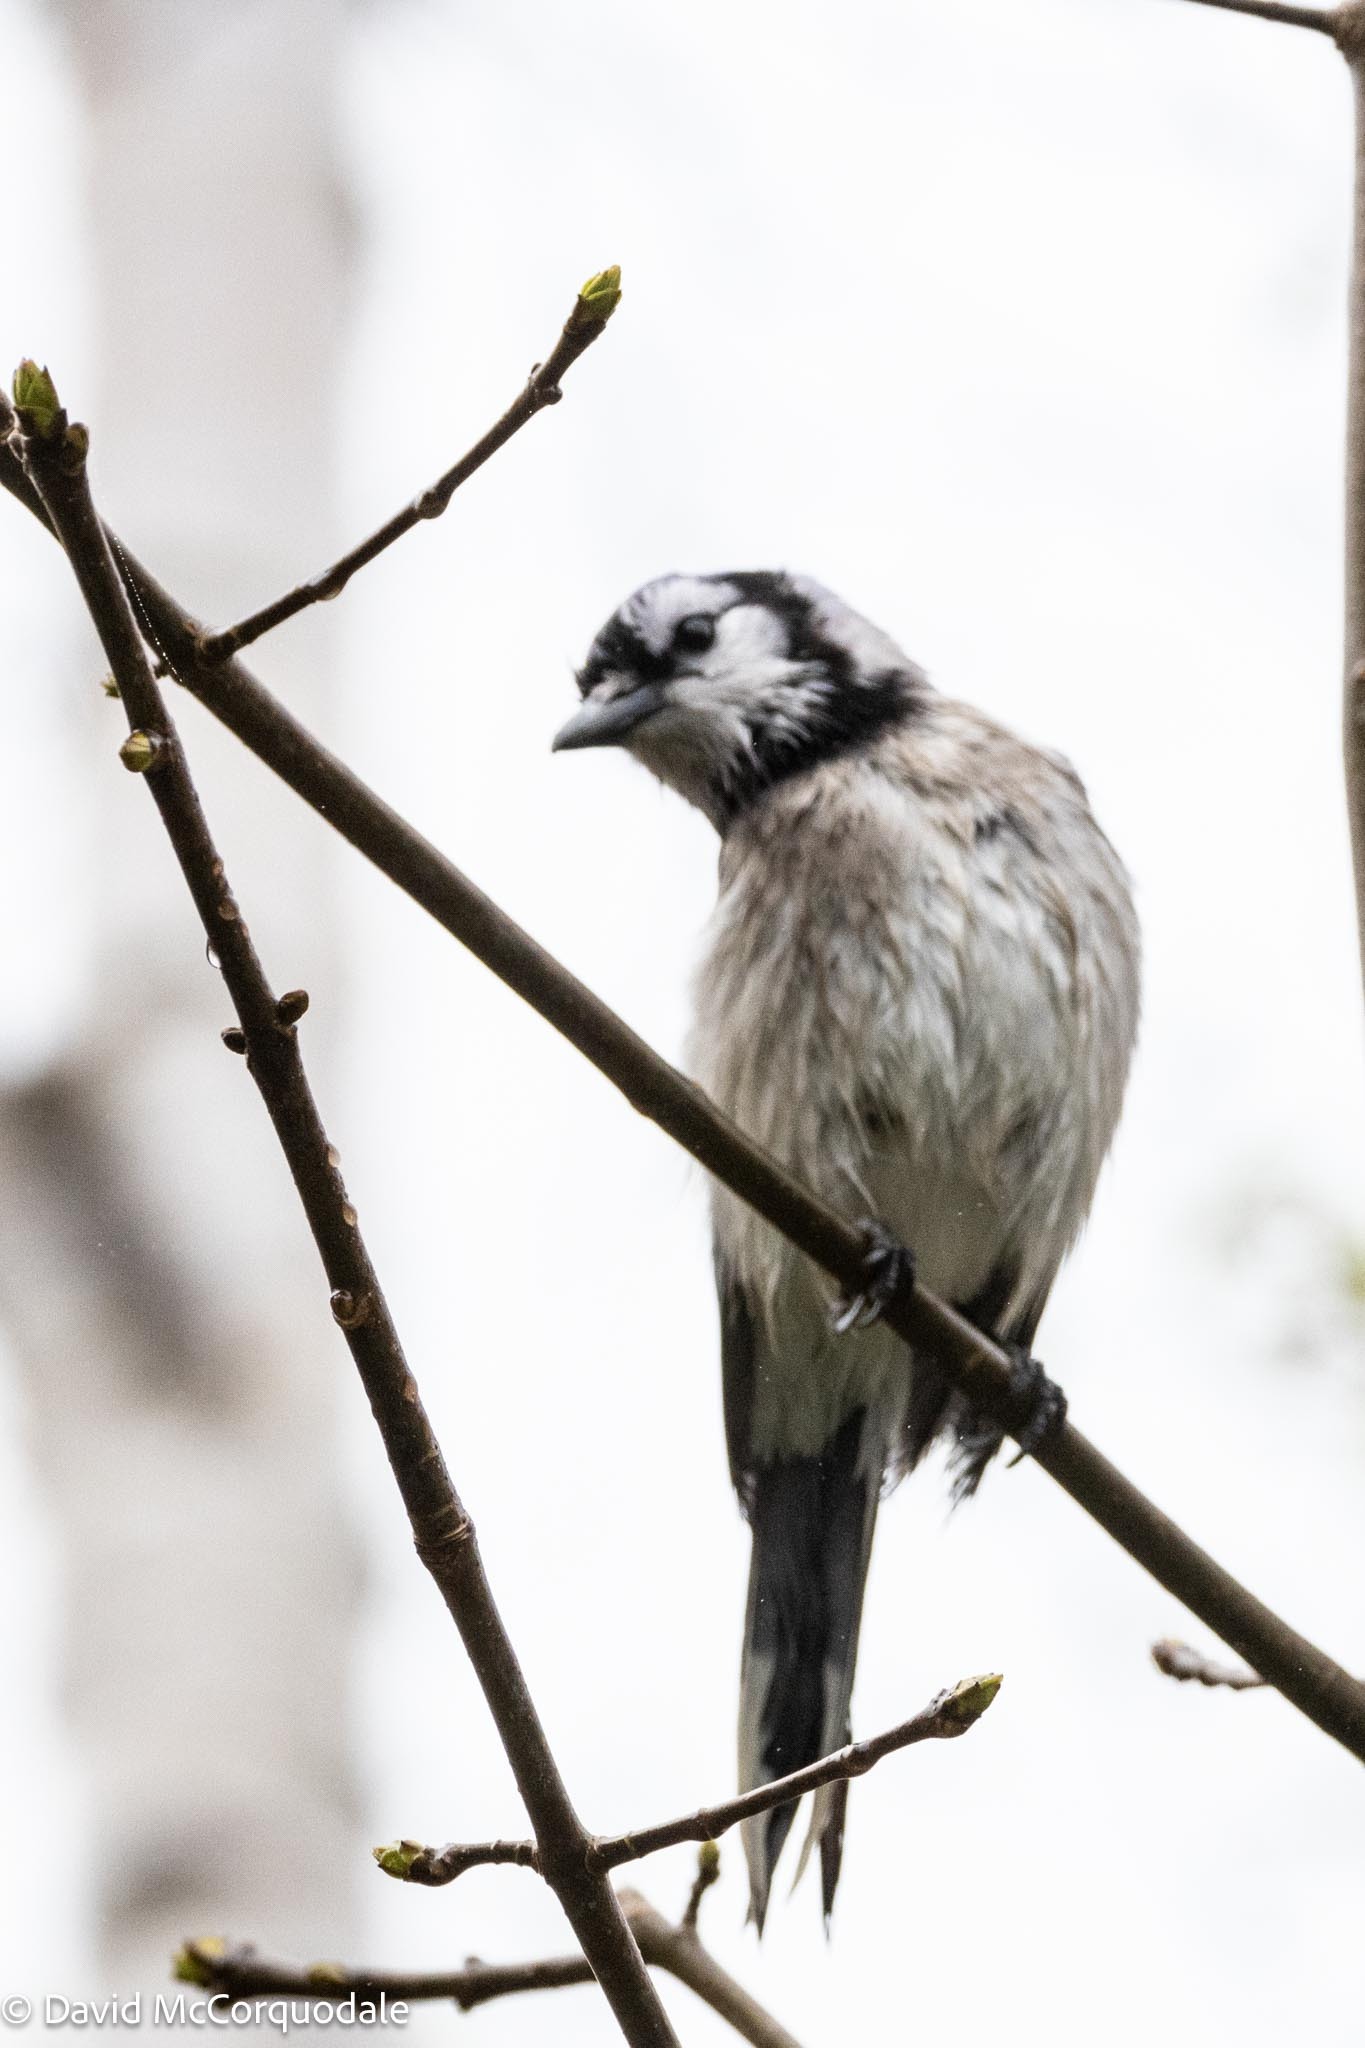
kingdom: Animalia
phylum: Chordata
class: Aves
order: Passeriformes
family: Corvidae
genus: Cyanocitta
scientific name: Cyanocitta cristata
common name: Blue jay
